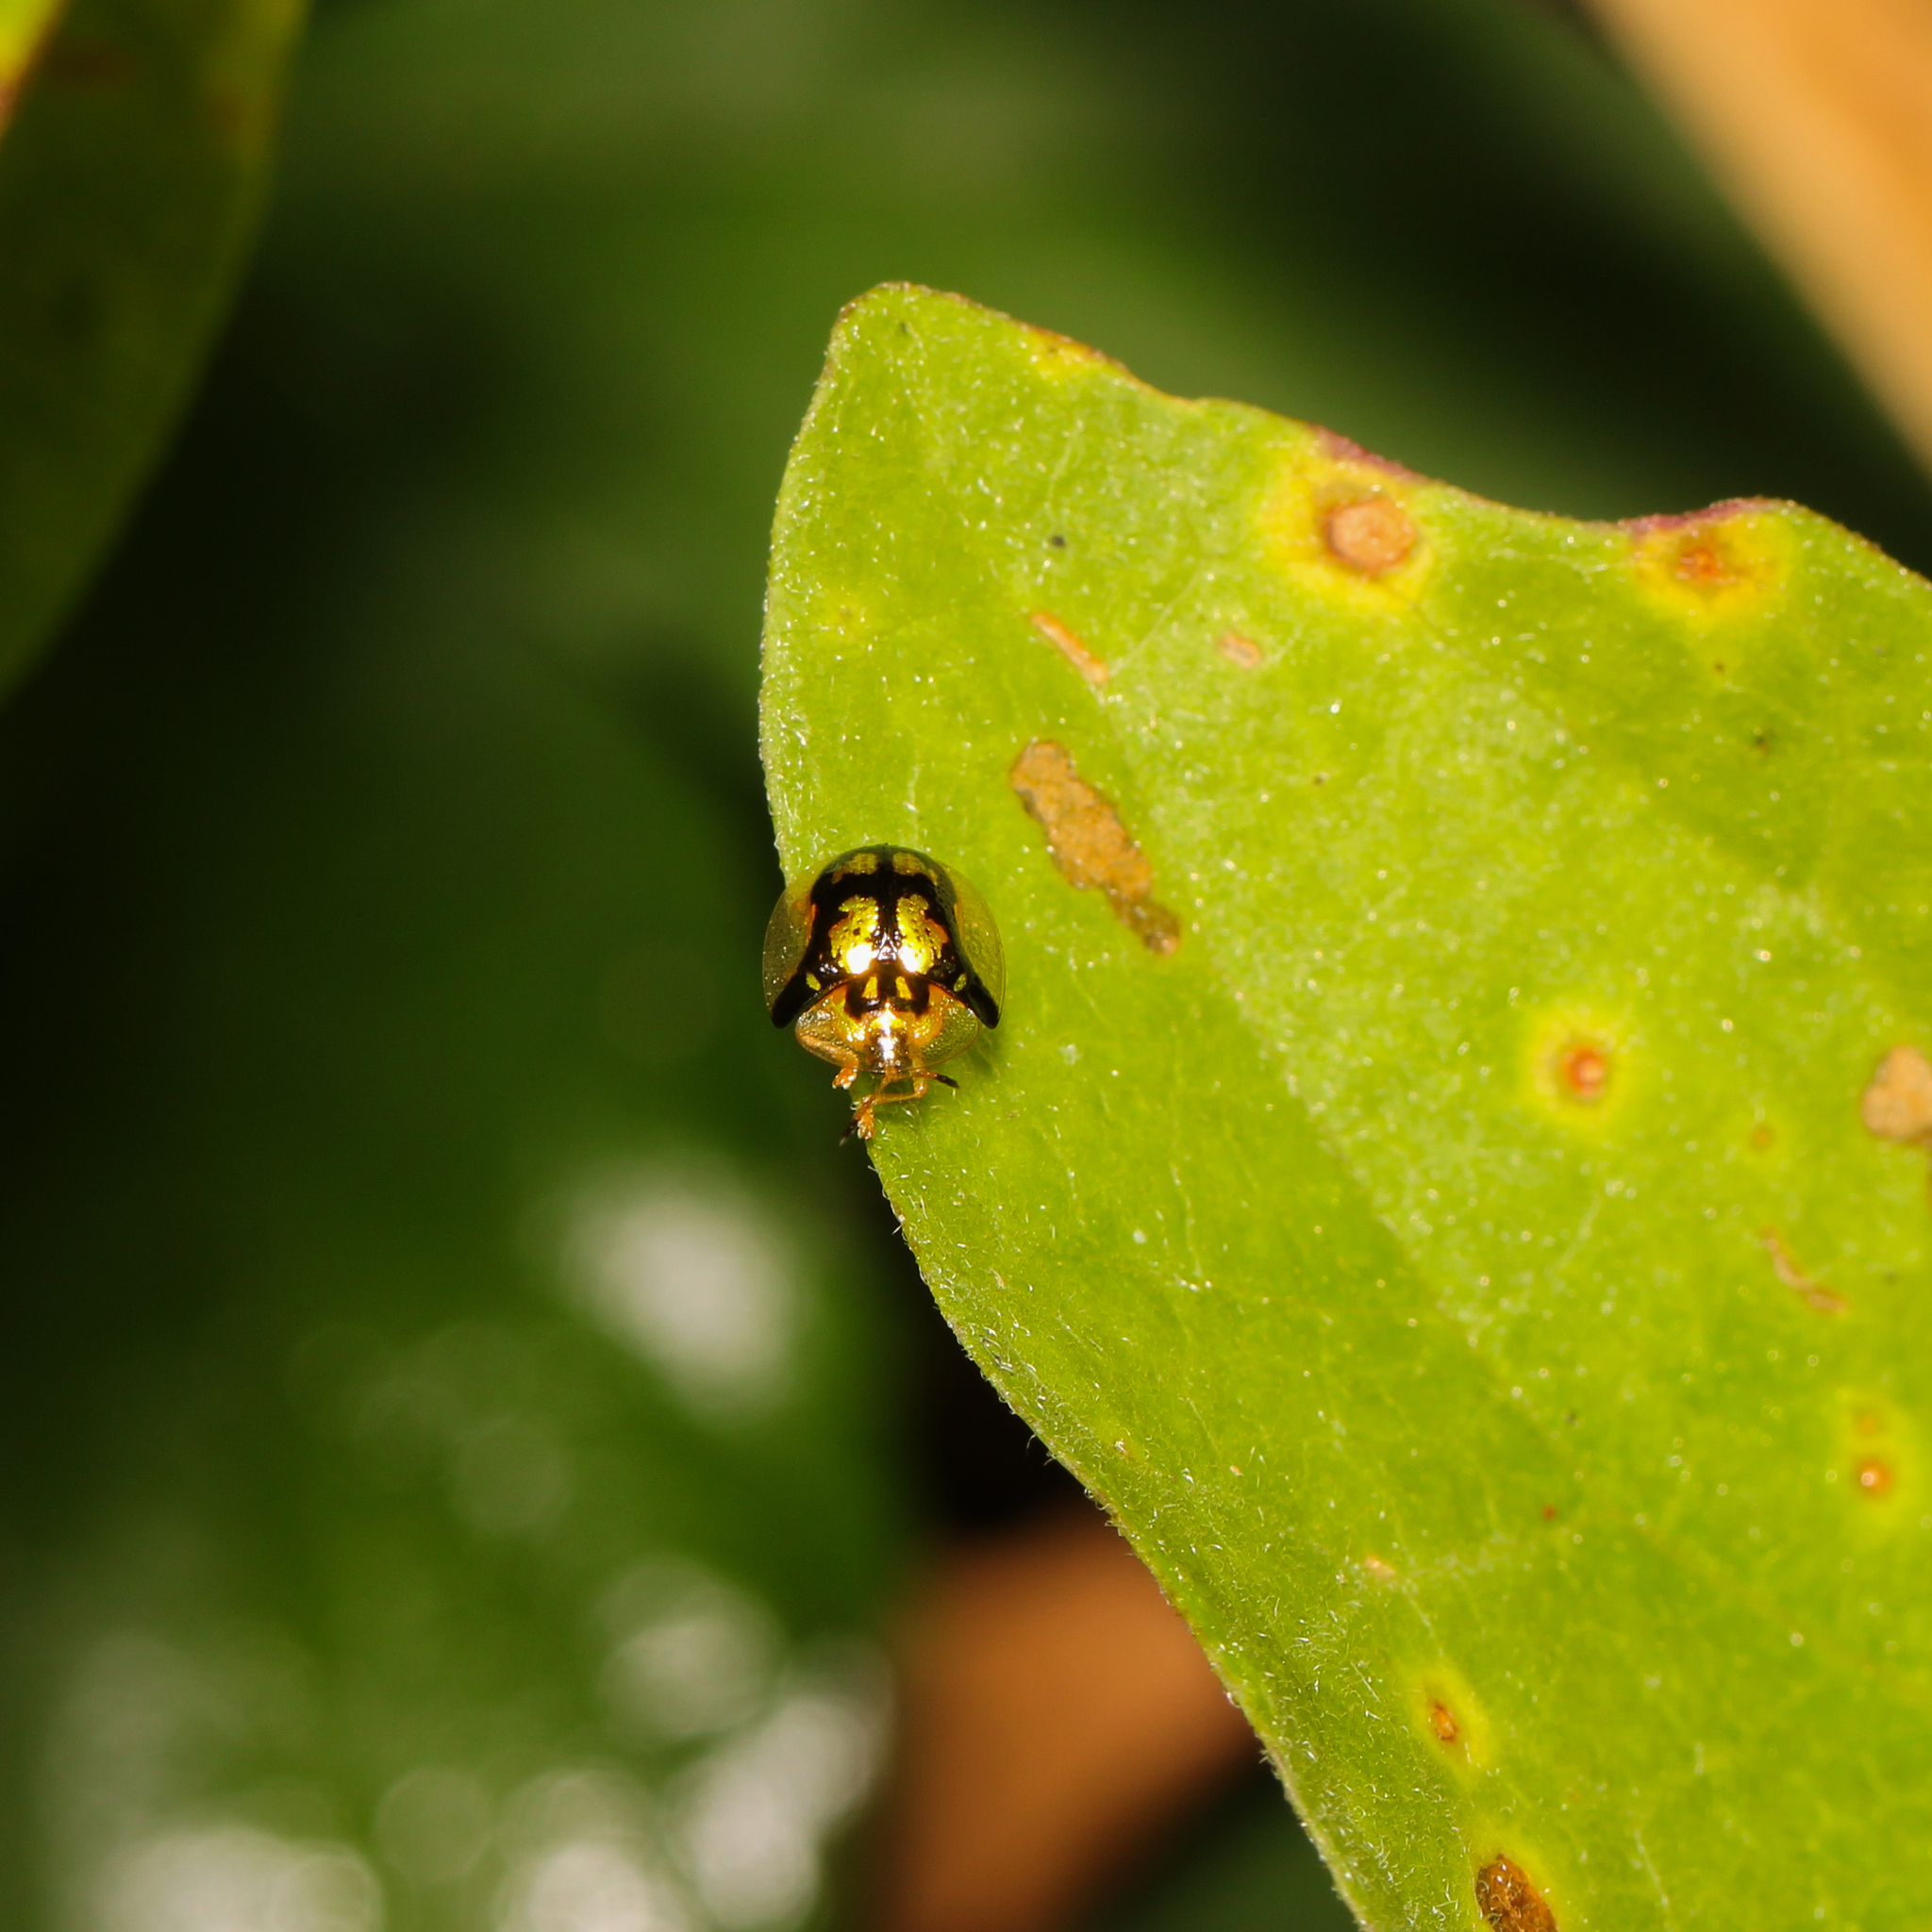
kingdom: Animalia
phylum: Arthropoda
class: Insecta
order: Coleoptera
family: Chrysomelidae
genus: Deloyala
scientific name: Deloyala guttata
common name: Mottled tortoise beetle
